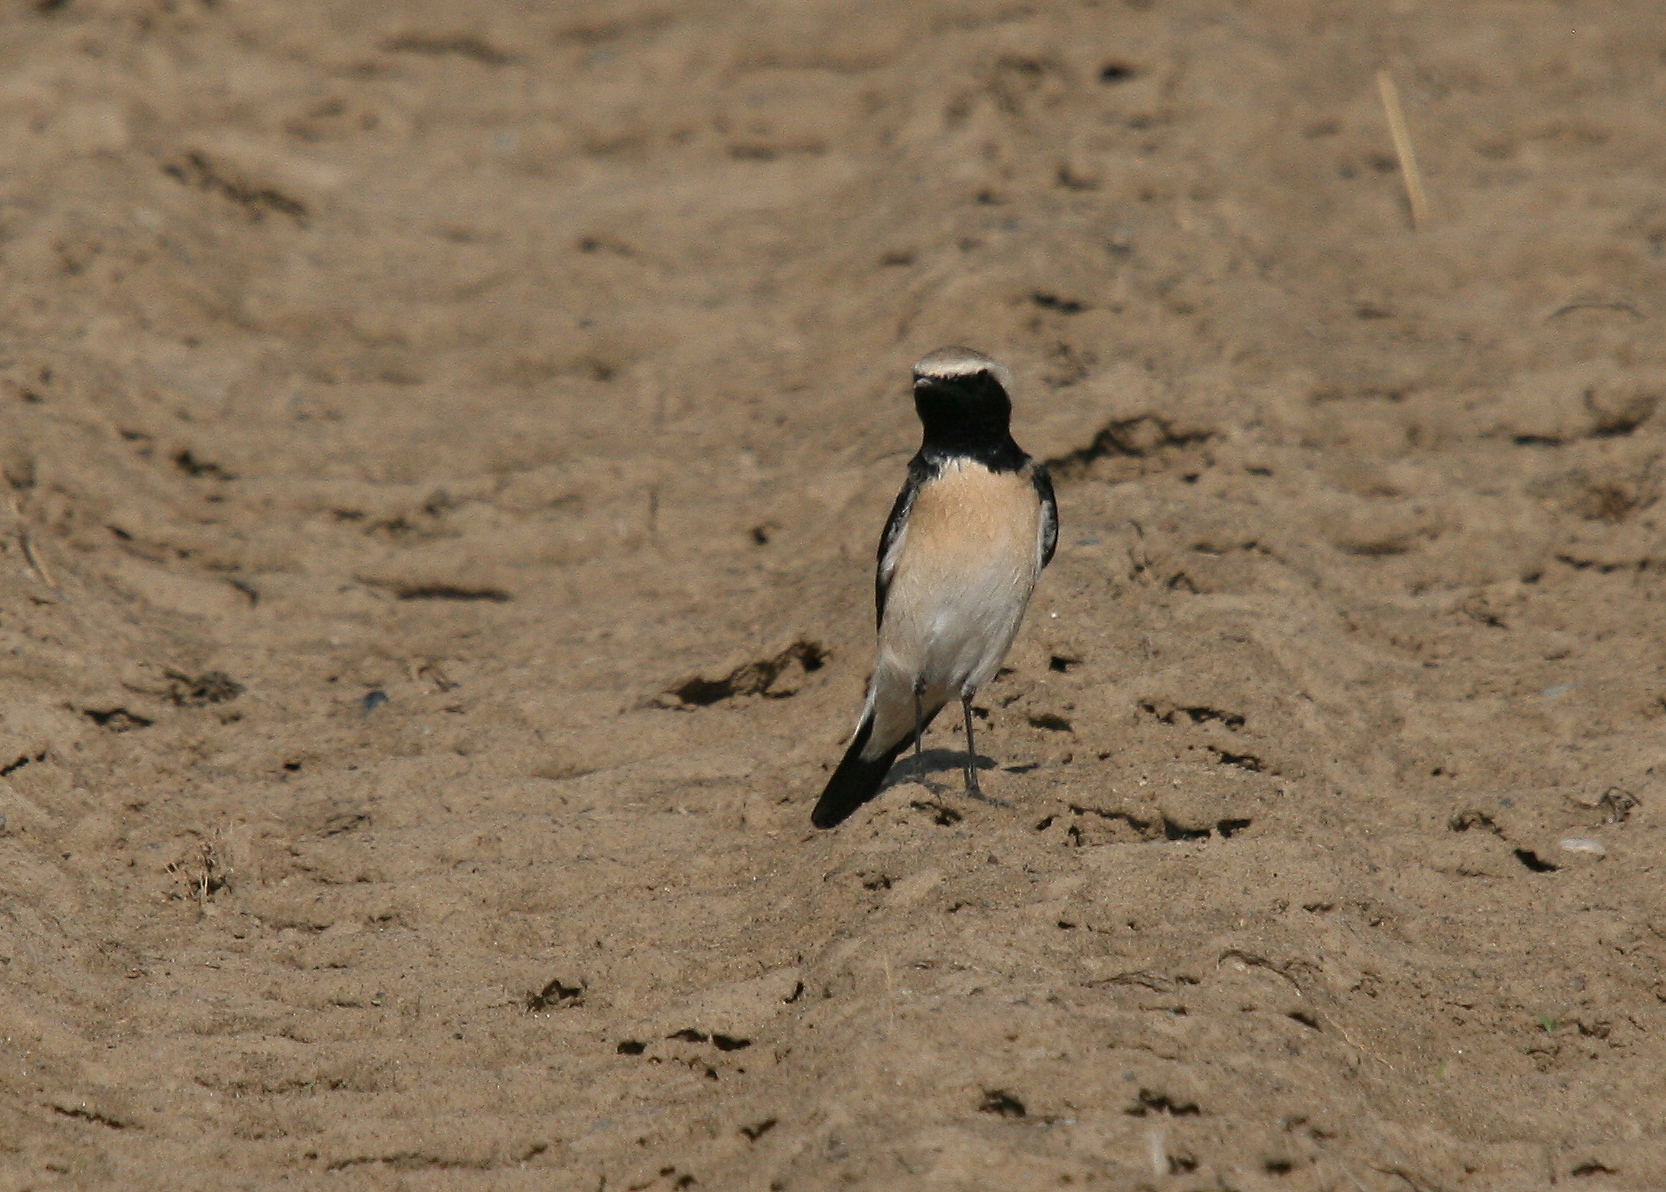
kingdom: Animalia
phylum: Chordata
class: Aves
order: Passeriformes
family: Muscicapidae
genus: Oenanthe
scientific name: Oenanthe deserti
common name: Desert wheatear
